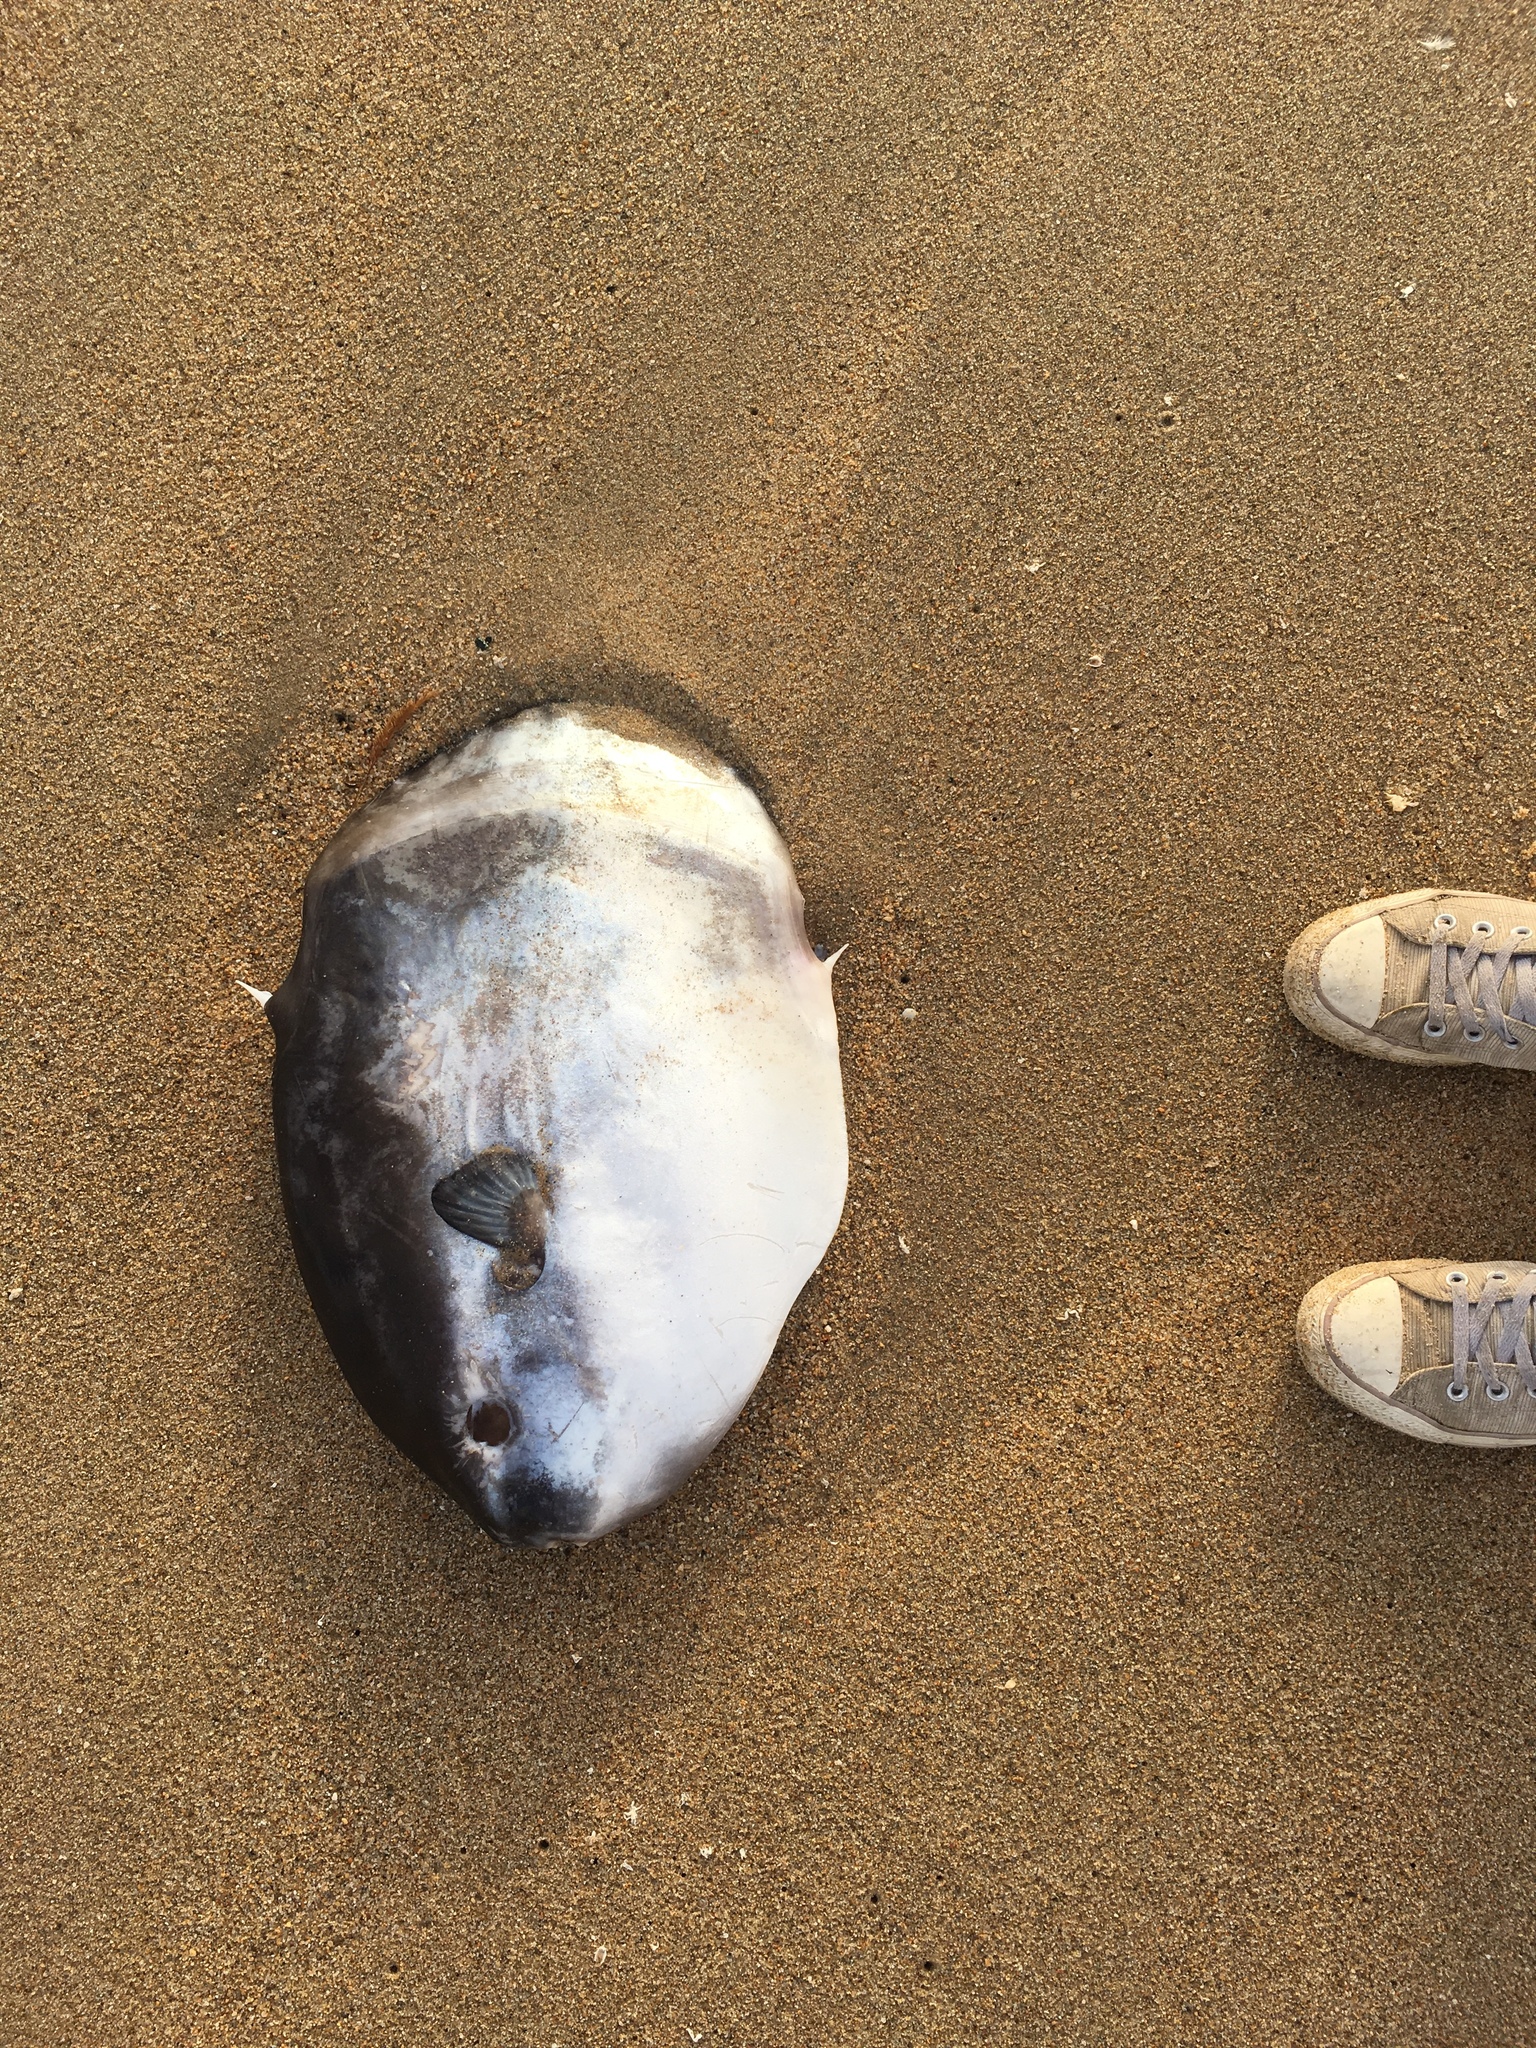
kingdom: Animalia
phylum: Chordata
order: Tetraodontiformes
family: Molidae
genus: Mola
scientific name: Mola mola
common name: Ocean sunfish
